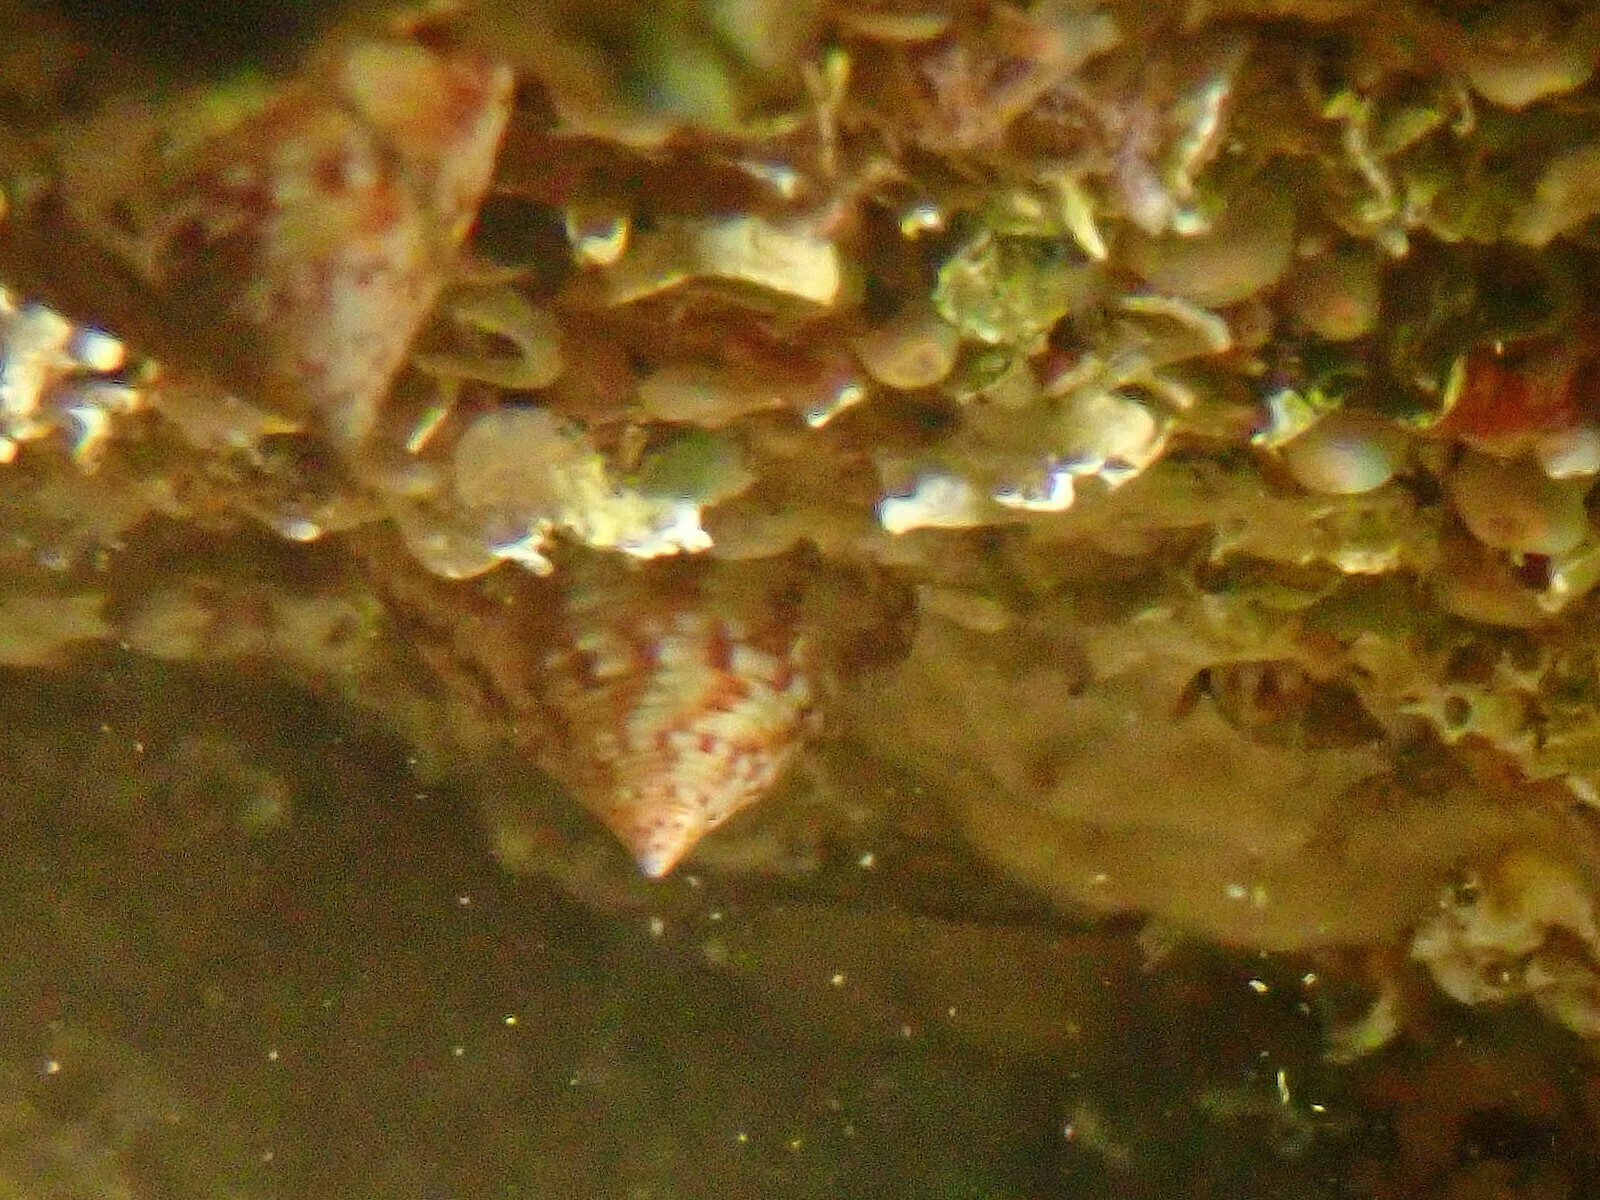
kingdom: Animalia
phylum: Mollusca
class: Gastropoda
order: Trochida
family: Calliostomatidae
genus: Calliostoma
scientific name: Calliostoma zizyphinum
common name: Painted top shell
